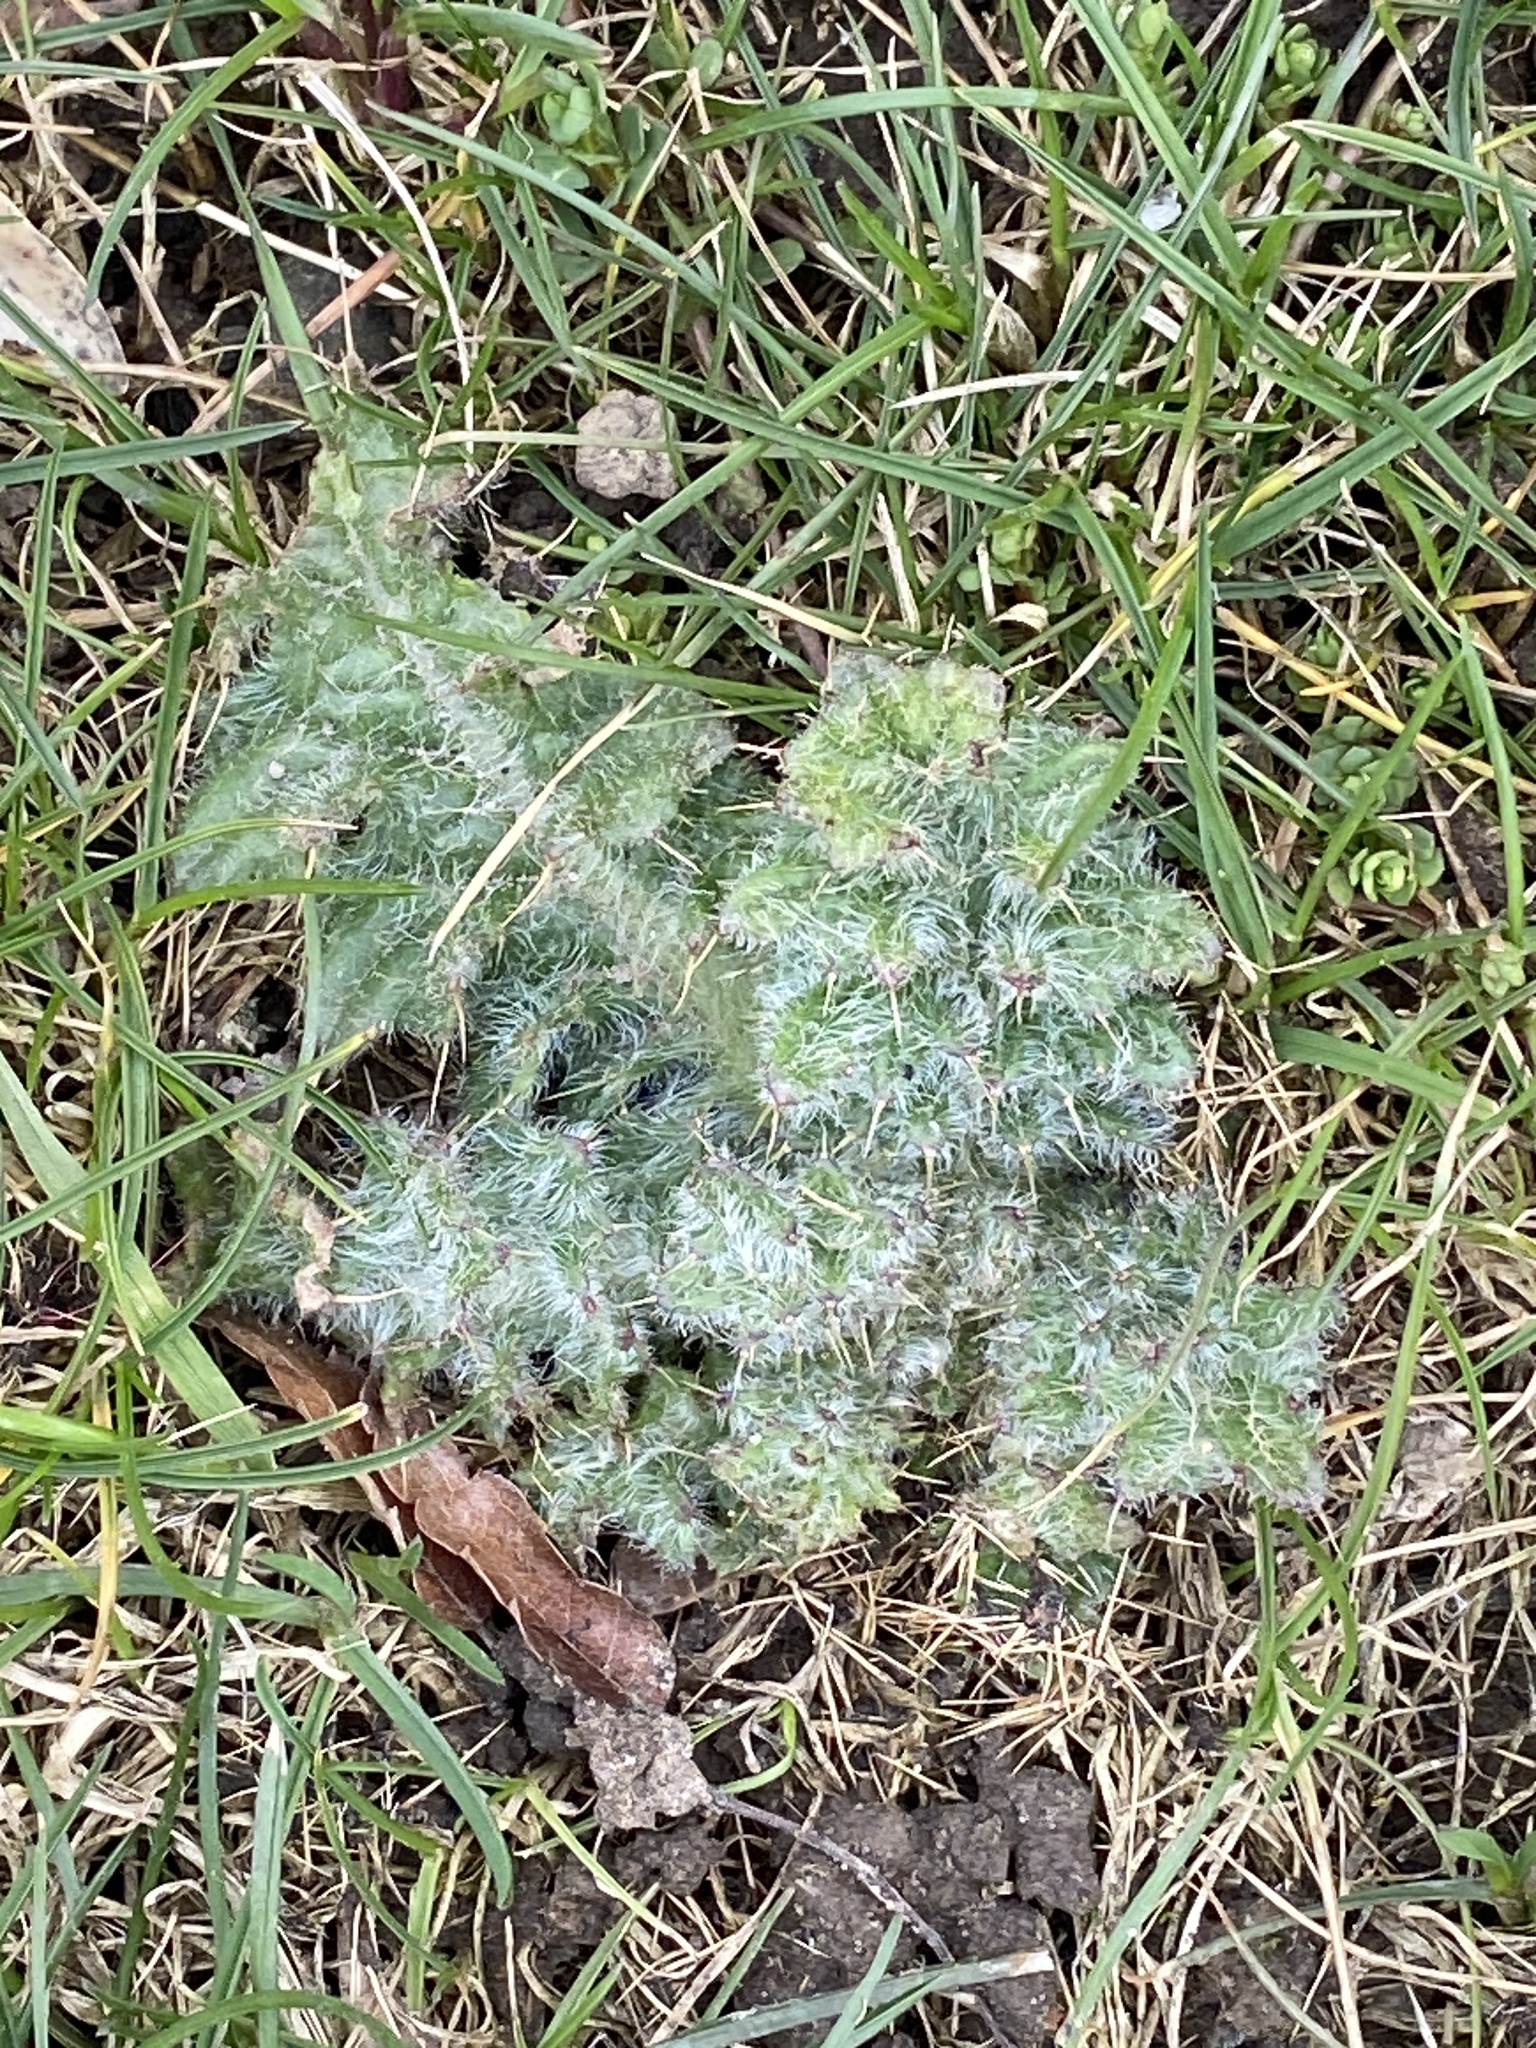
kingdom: Plantae
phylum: Tracheophyta
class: Magnoliopsida
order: Asterales
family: Asteraceae
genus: Cirsium
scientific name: Cirsium vulgare
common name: Bull thistle
